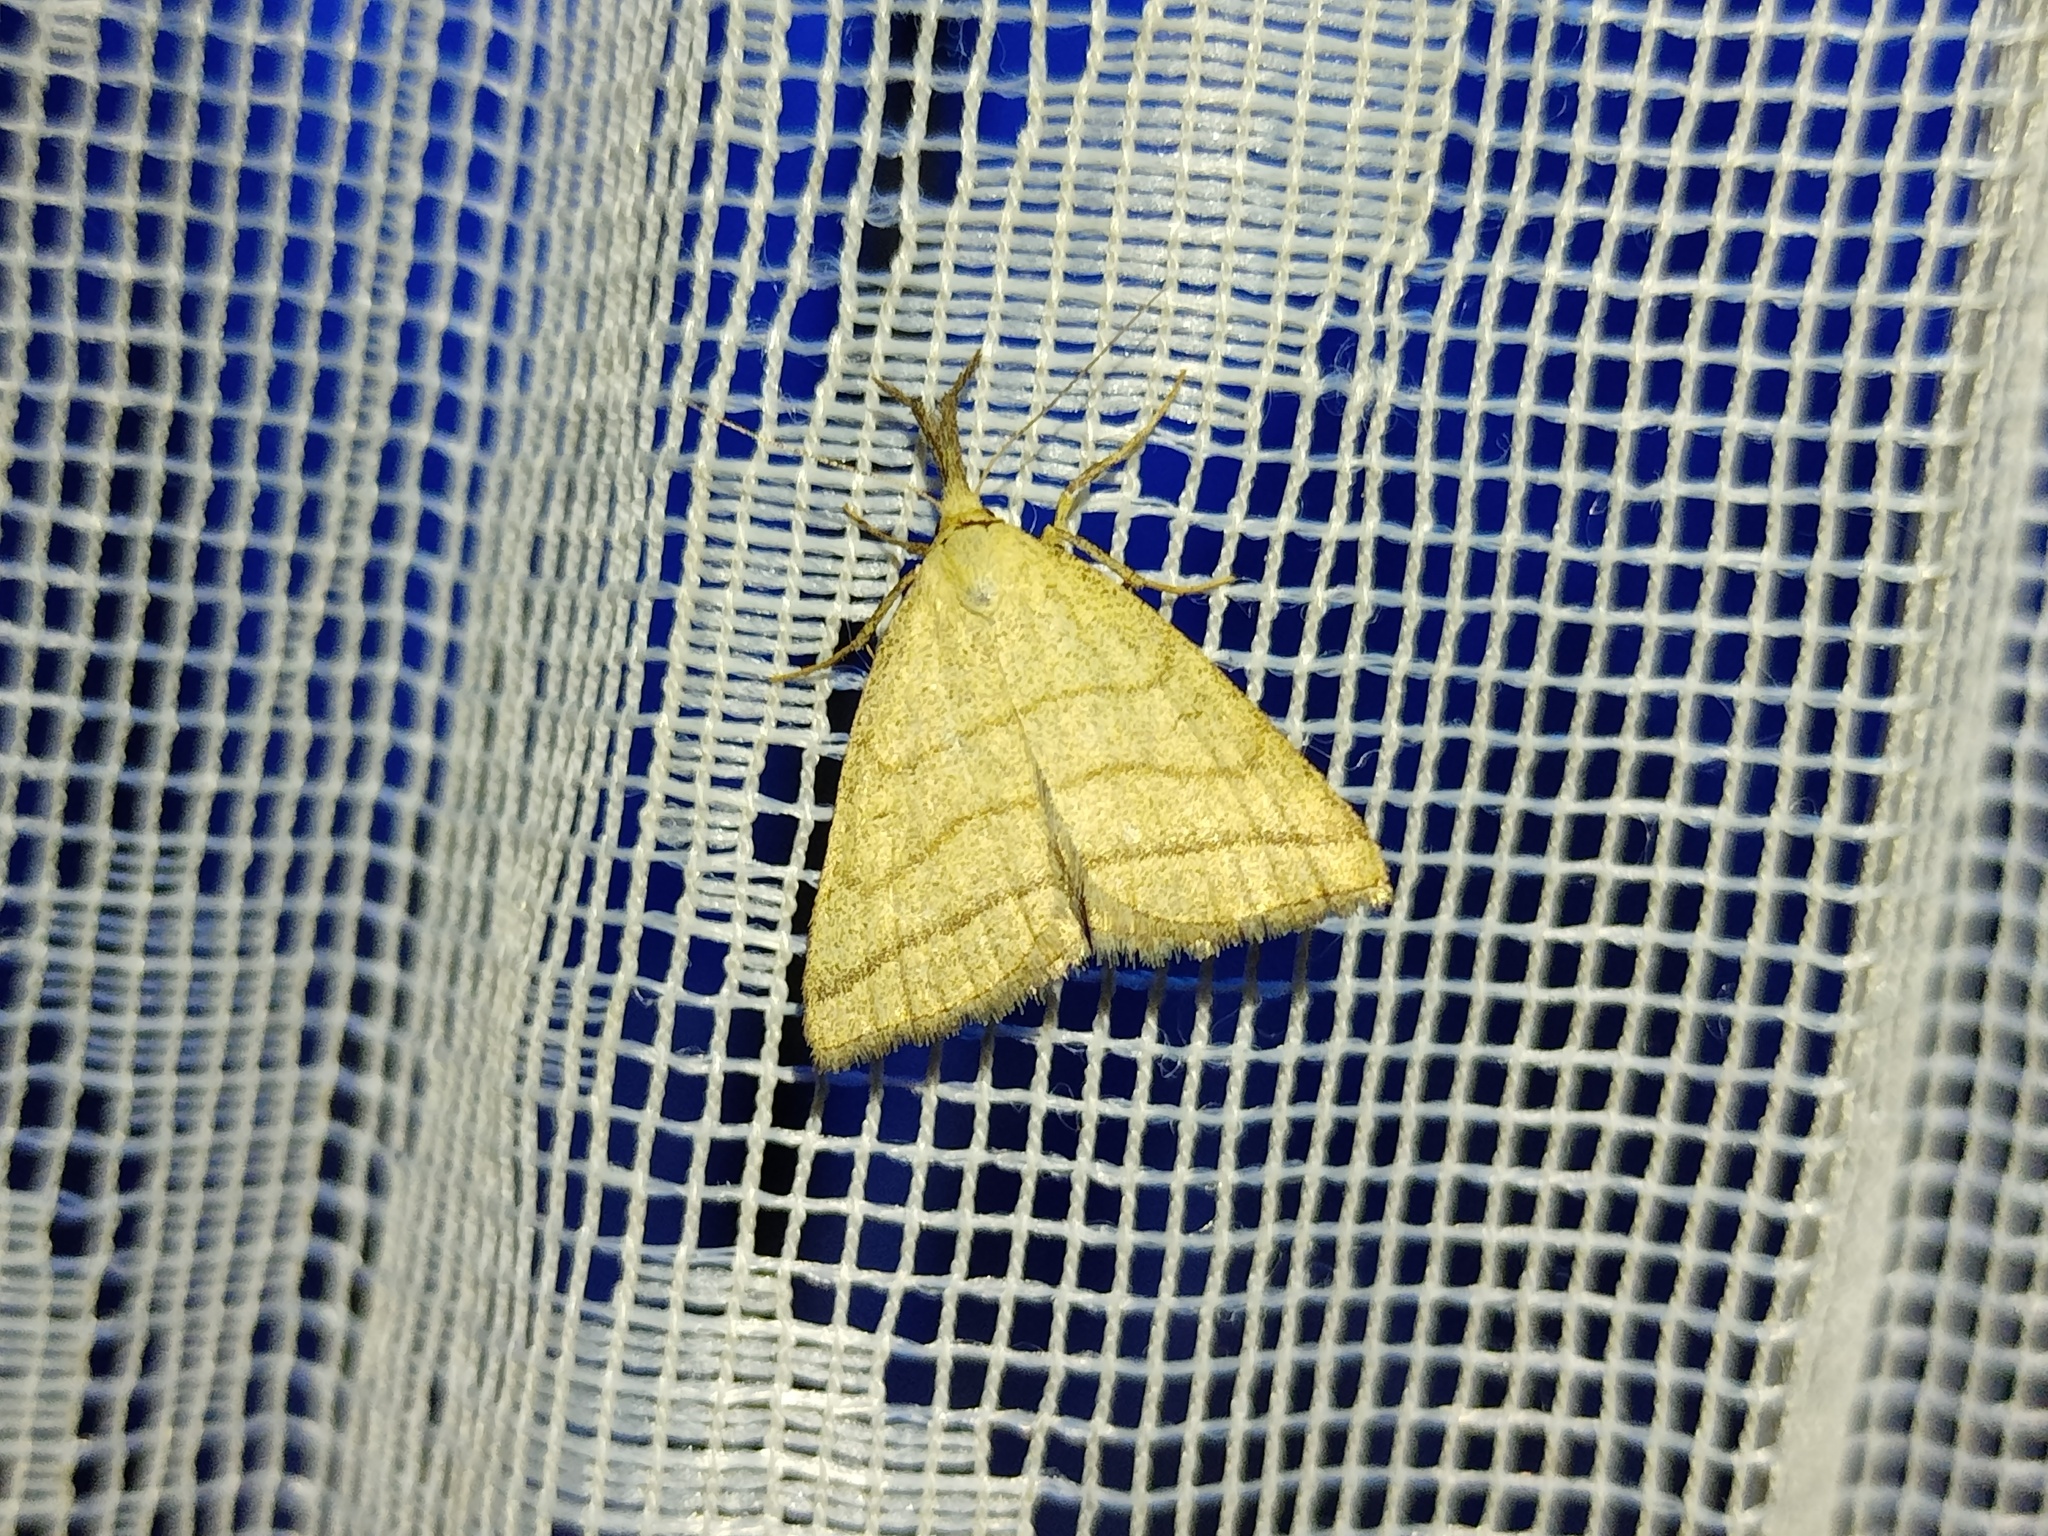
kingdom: Animalia
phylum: Arthropoda
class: Insecta
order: Lepidoptera
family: Erebidae
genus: Polypogon
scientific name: Polypogon tentacularia
